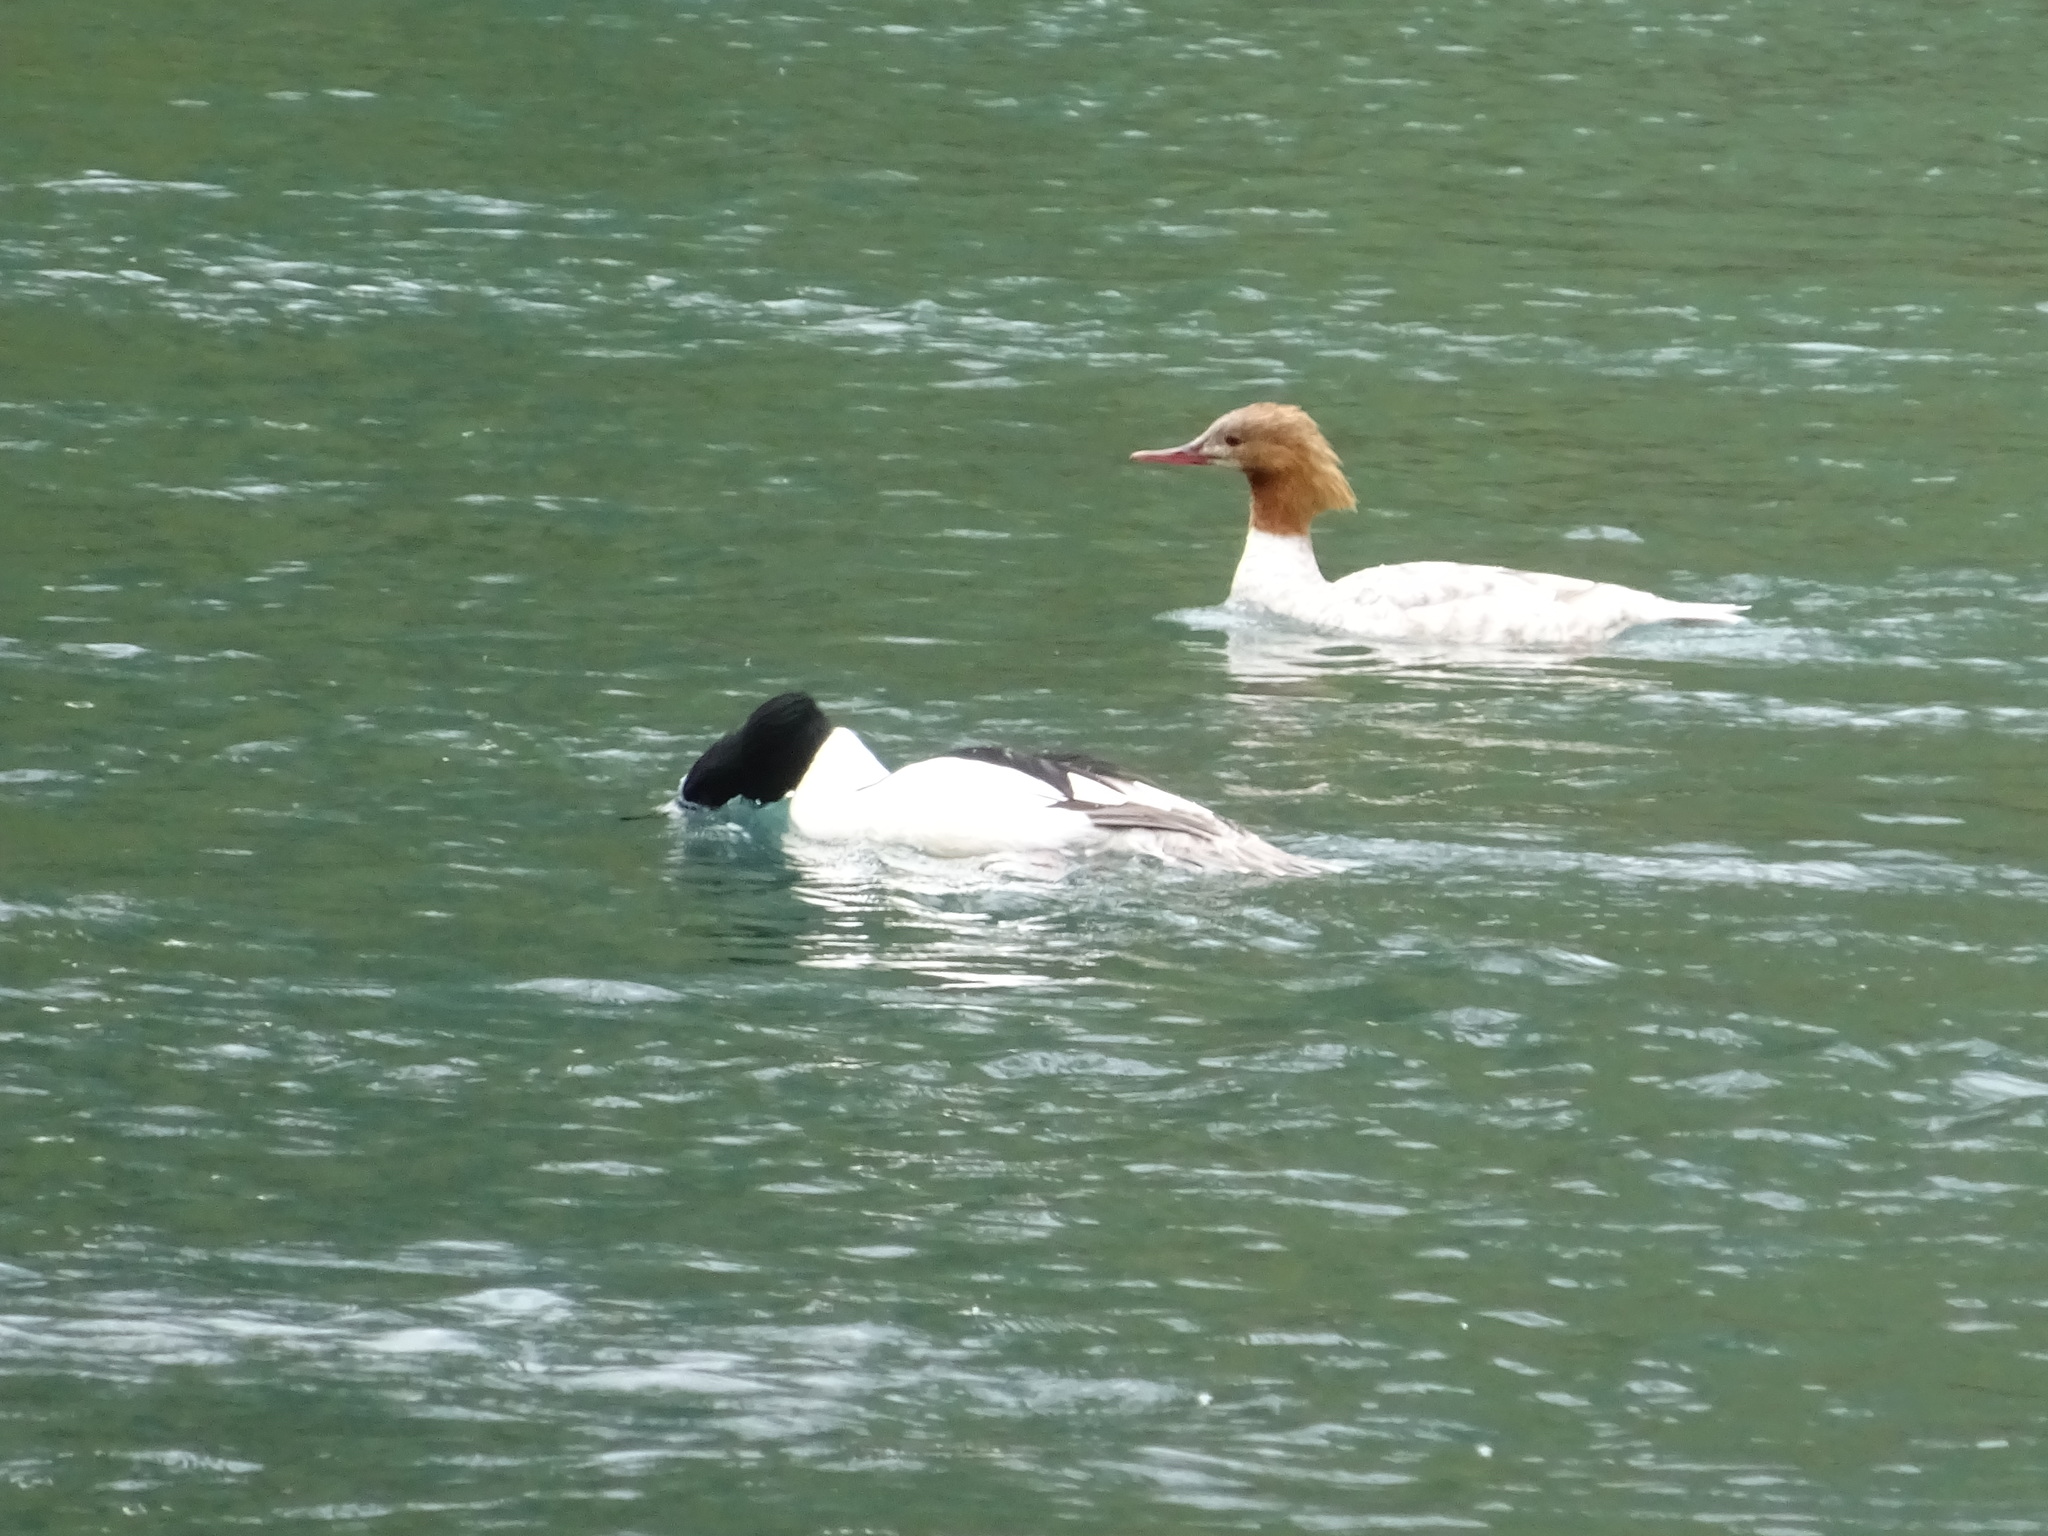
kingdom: Animalia
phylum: Chordata
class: Aves
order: Anseriformes
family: Anatidae
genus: Mergus
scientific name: Mergus merganser
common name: Common merganser
